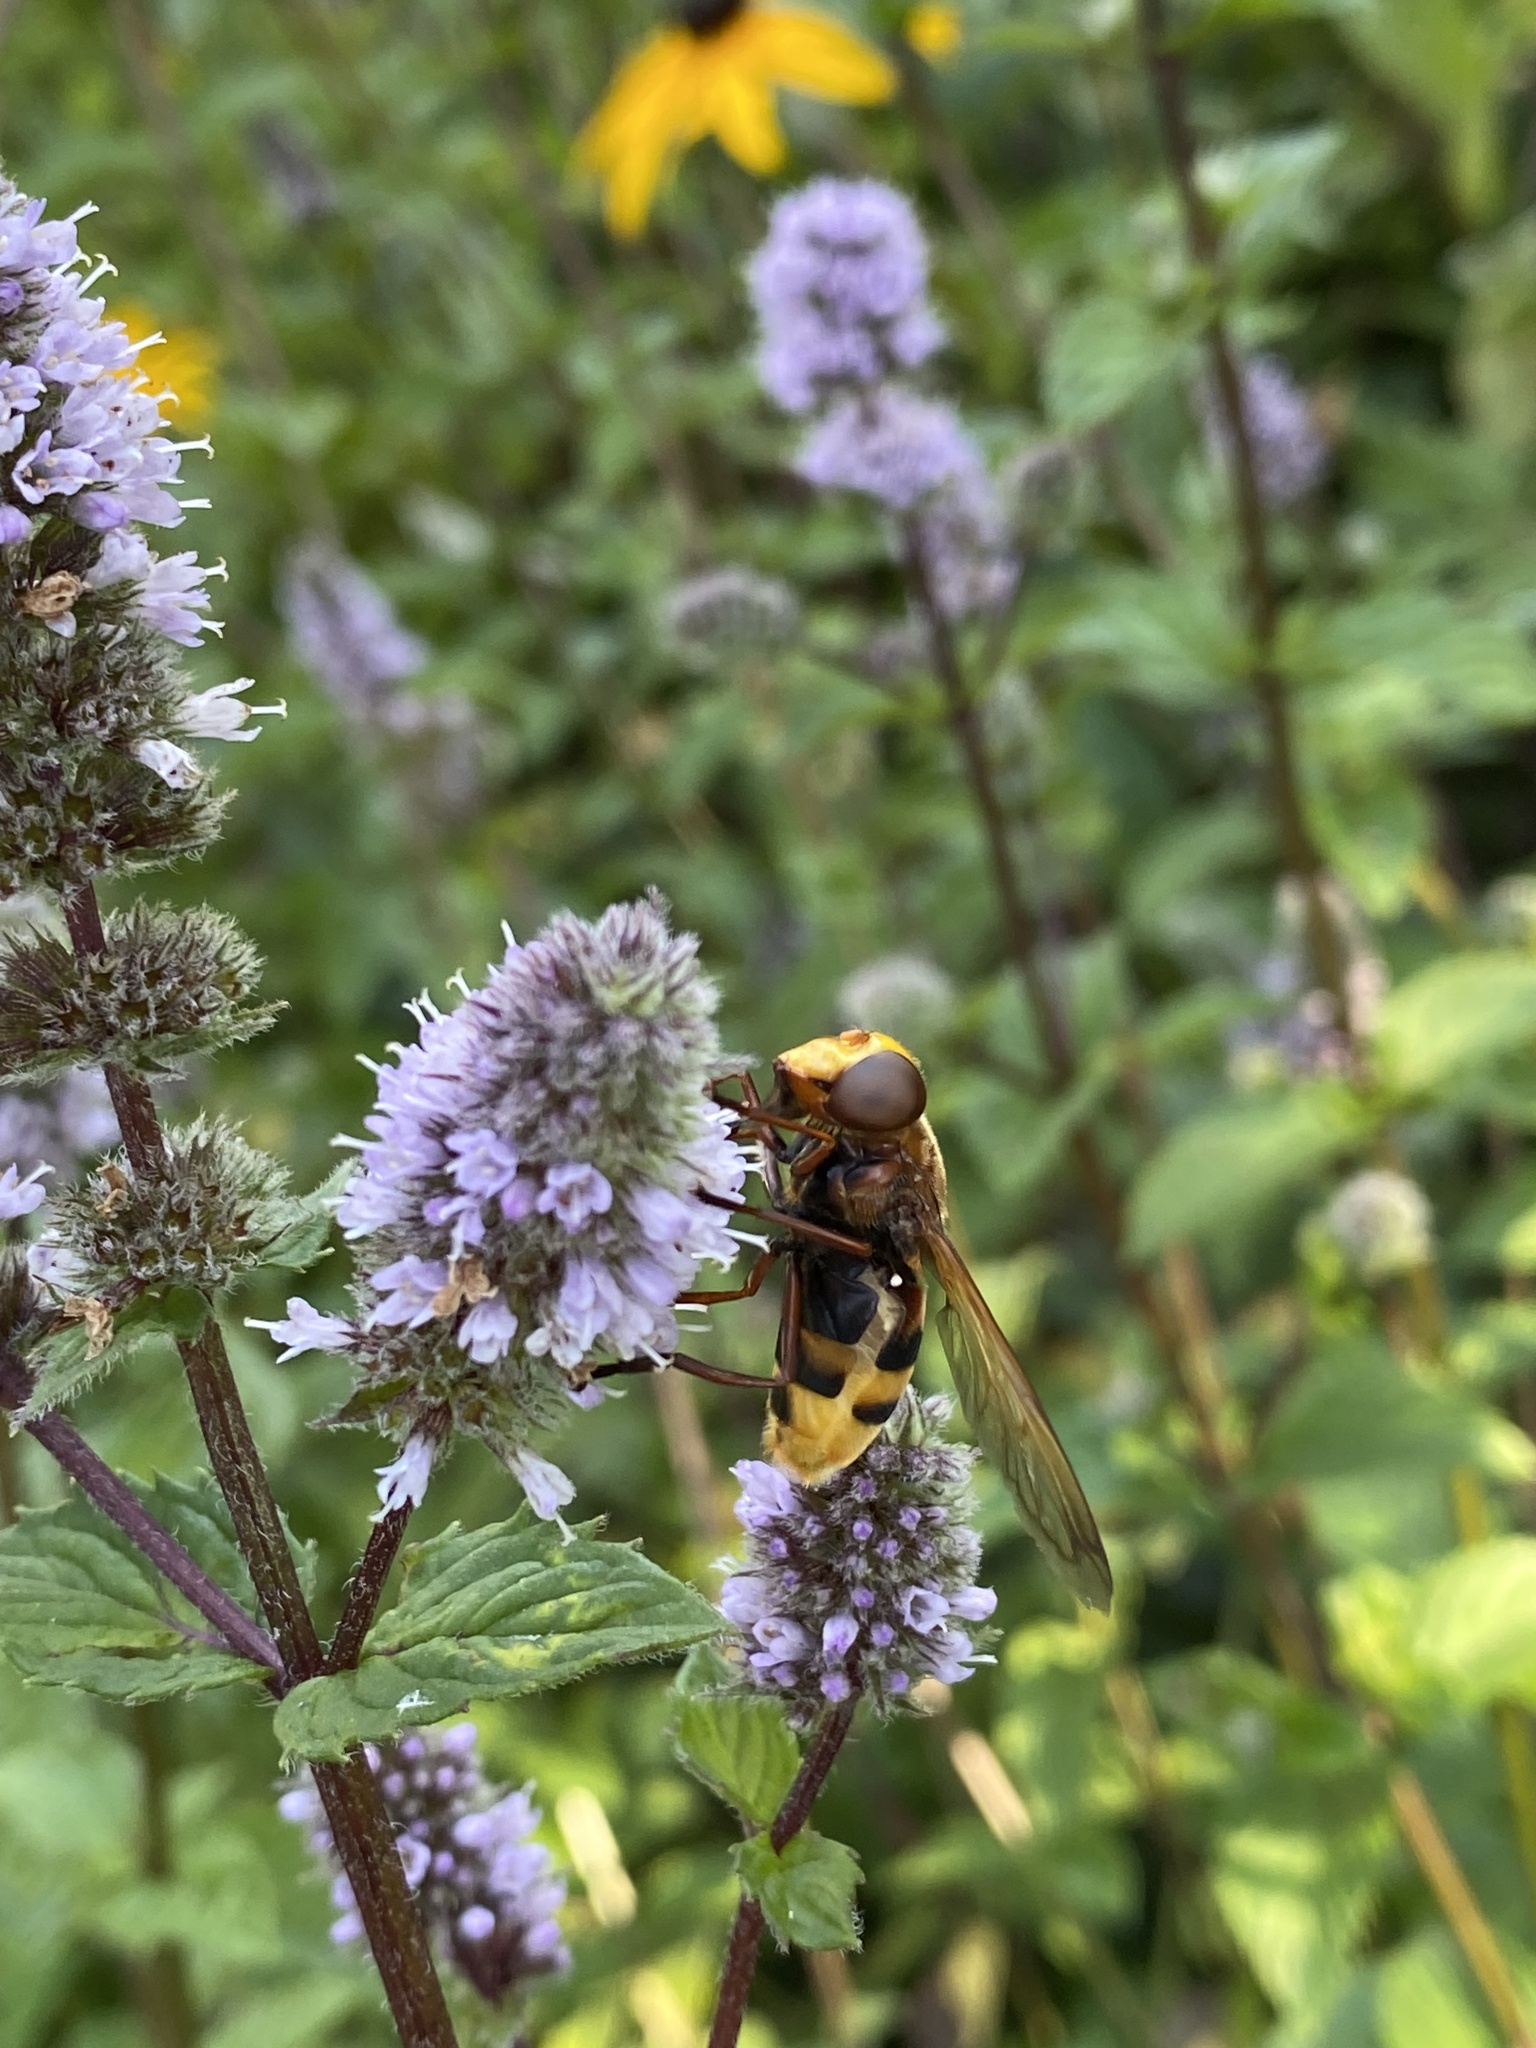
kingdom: Animalia
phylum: Arthropoda
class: Insecta
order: Diptera
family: Syrphidae
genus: Volucella
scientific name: Volucella zonaria
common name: Hornet hoverfly
